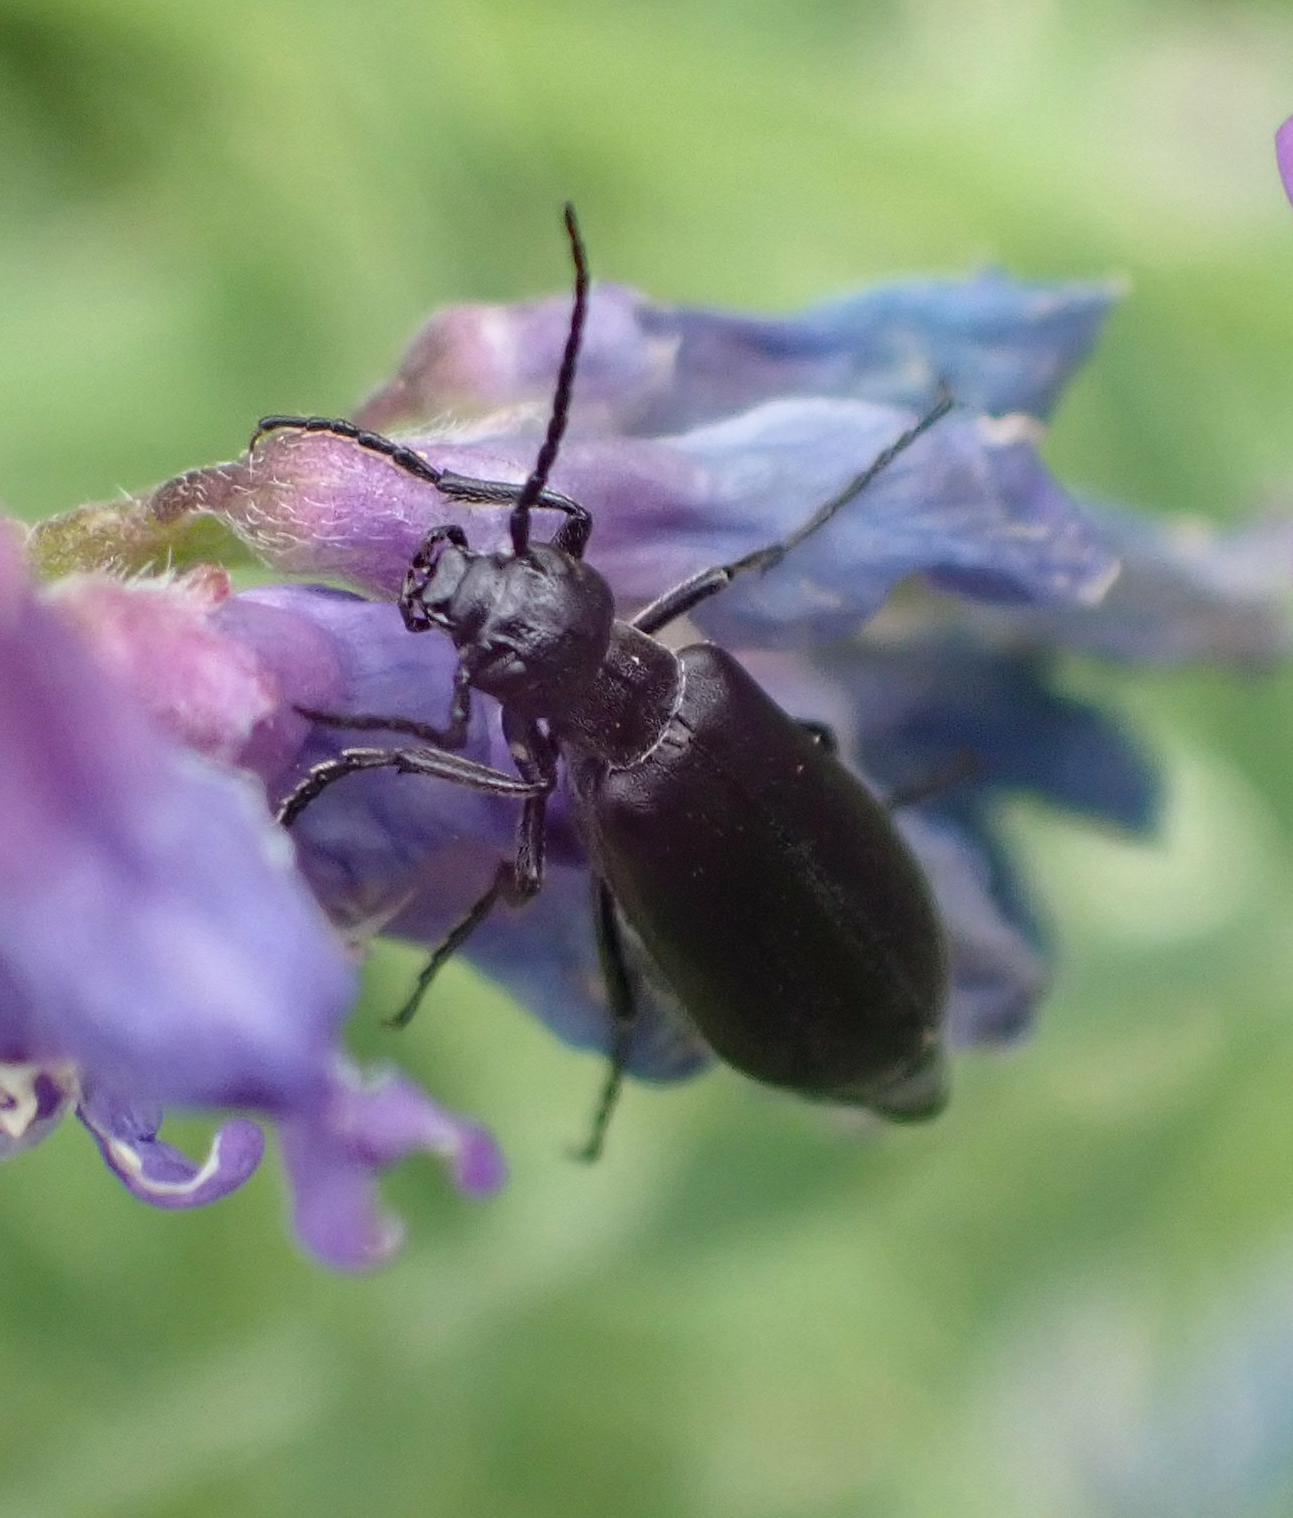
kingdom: Animalia
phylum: Arthropoda
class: Insecta
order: Coleoptera
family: Meloidae
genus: Epicauta
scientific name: Epicauta subglabra
